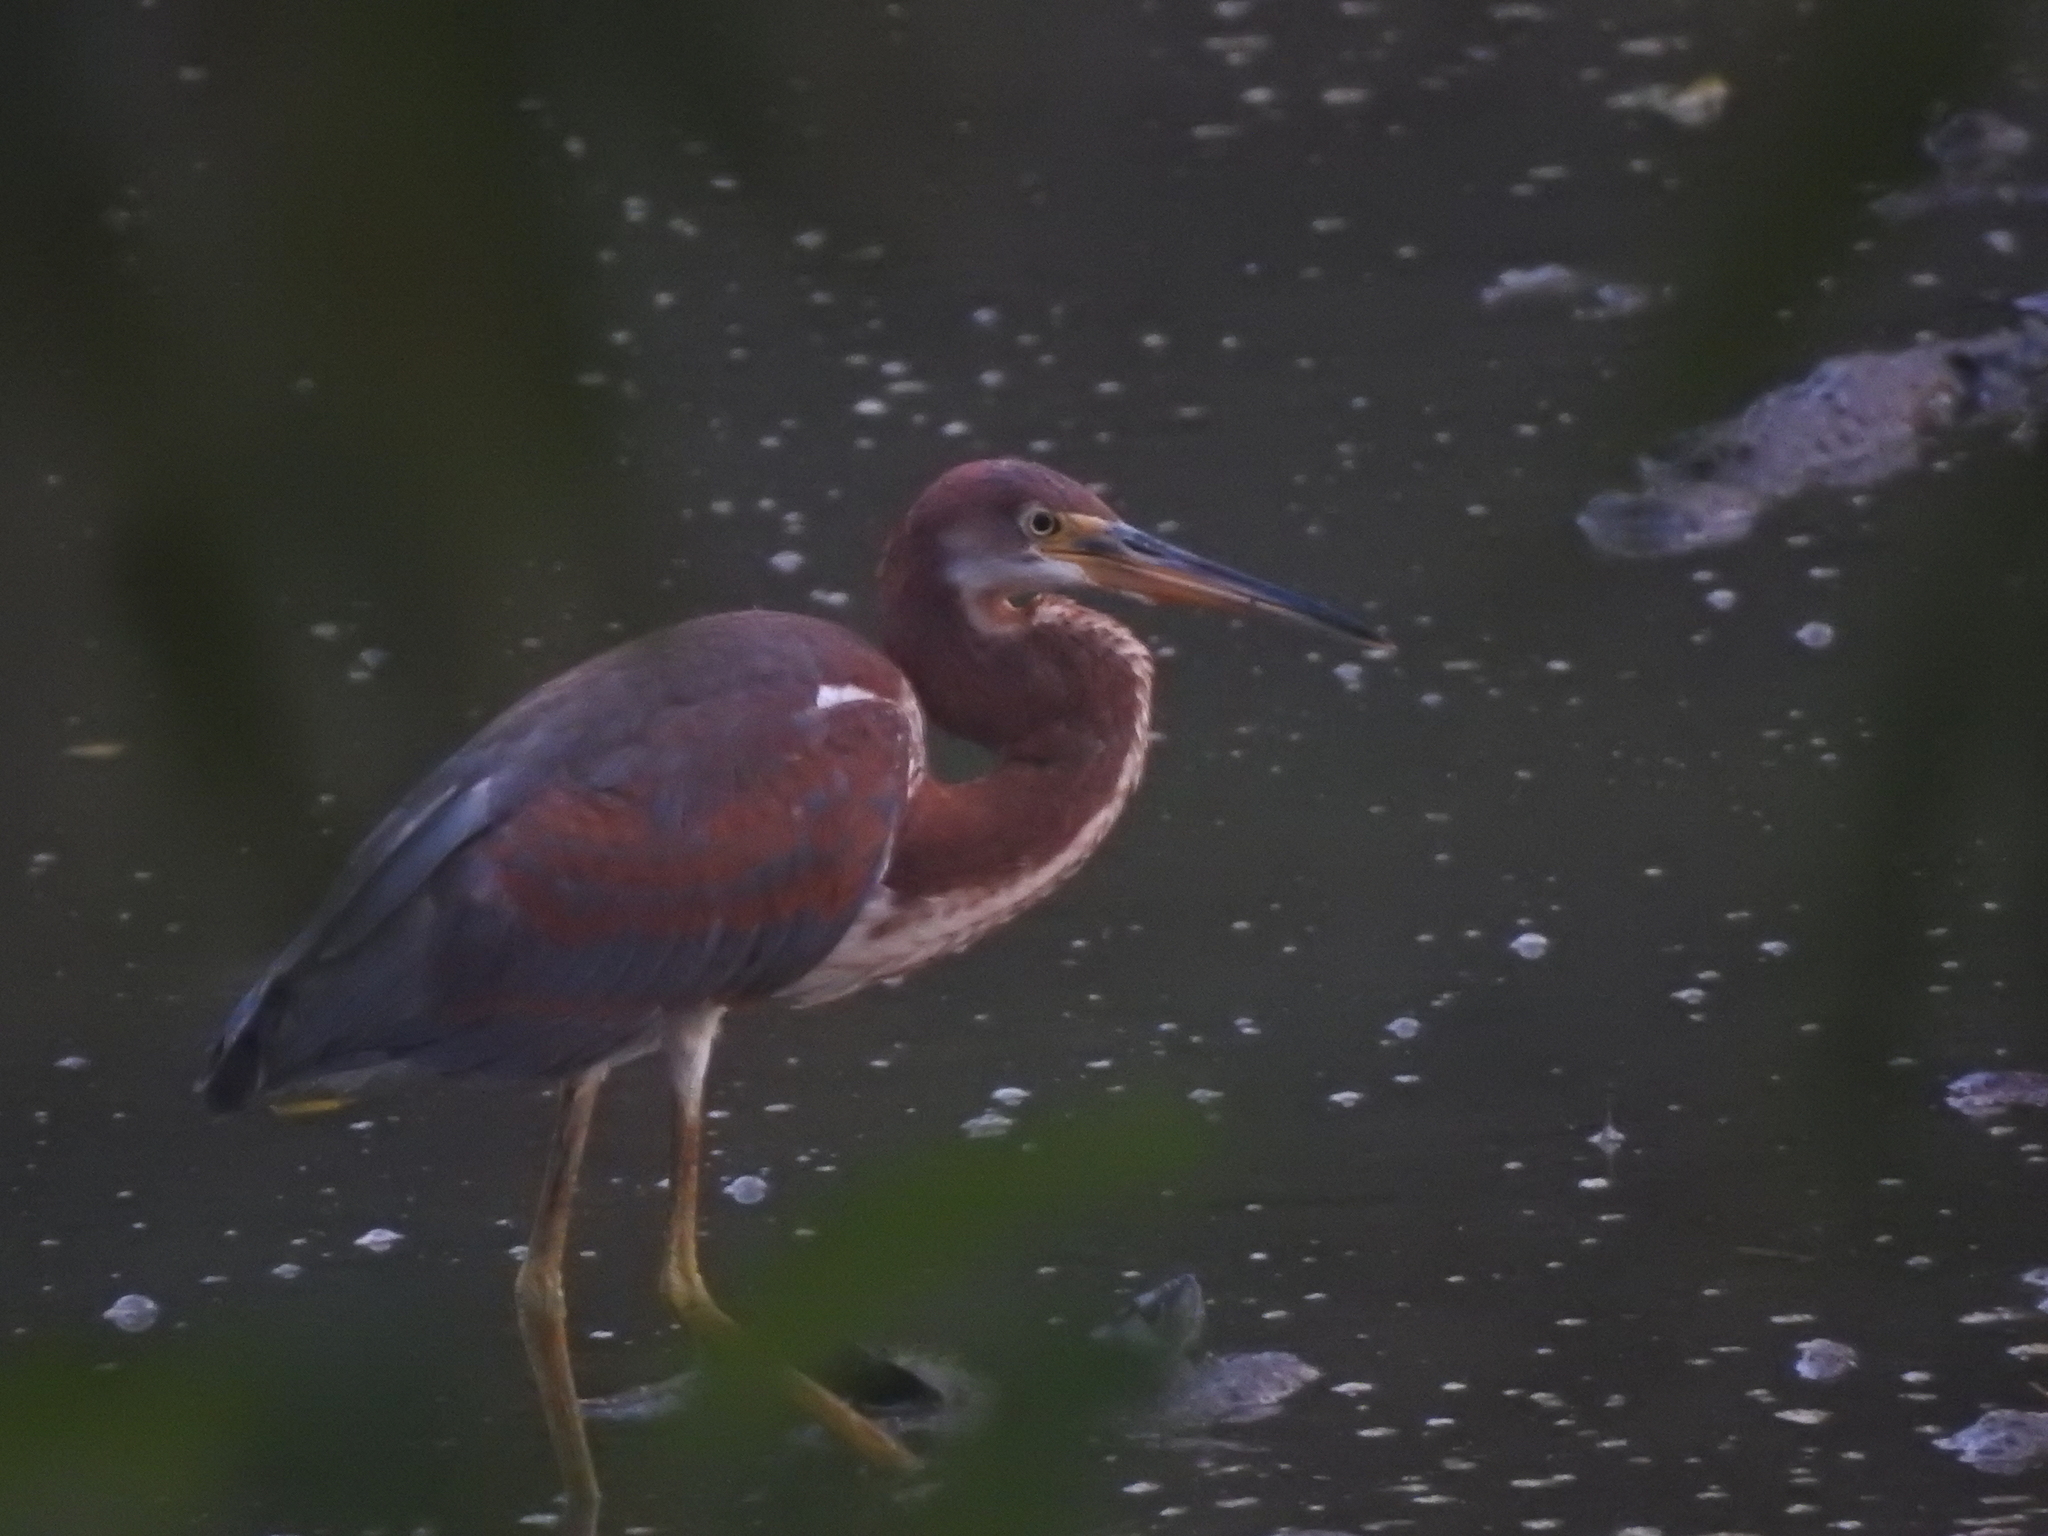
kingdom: Animalia
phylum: Chordata
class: Aves
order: Pelecaniformes
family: Ardeidae
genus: Egretta
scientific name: Egretta tricolor
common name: Tricolored heron
